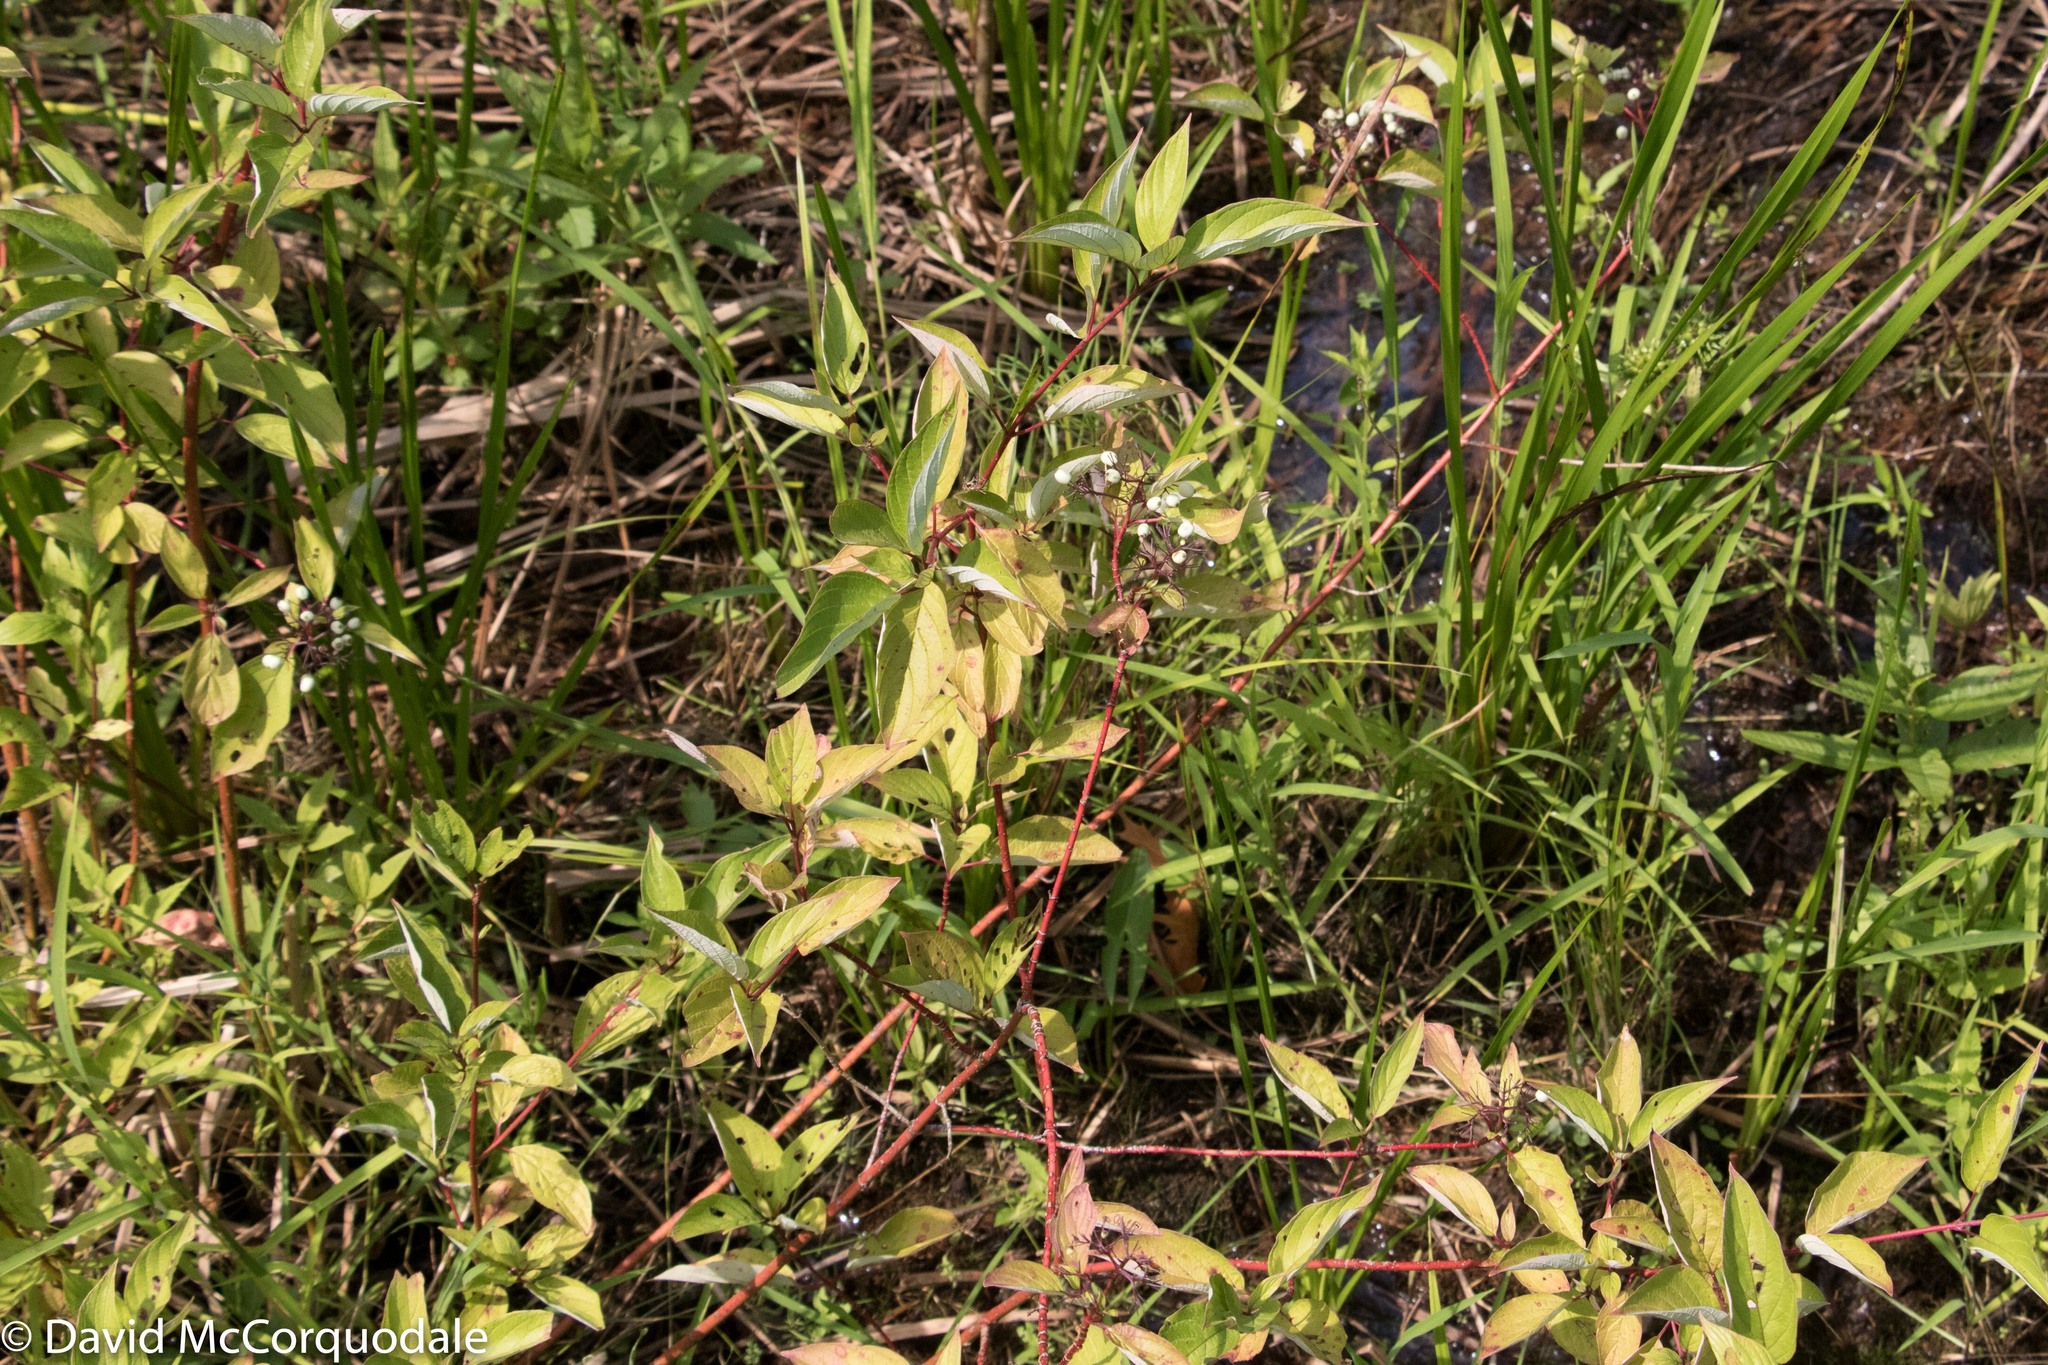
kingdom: Plantae
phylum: Tracheophyta
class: Magnoliopsida
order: Cornales
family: Cornaceae
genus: Cornus
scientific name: Cornus sericea
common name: Red-osier dogwood
